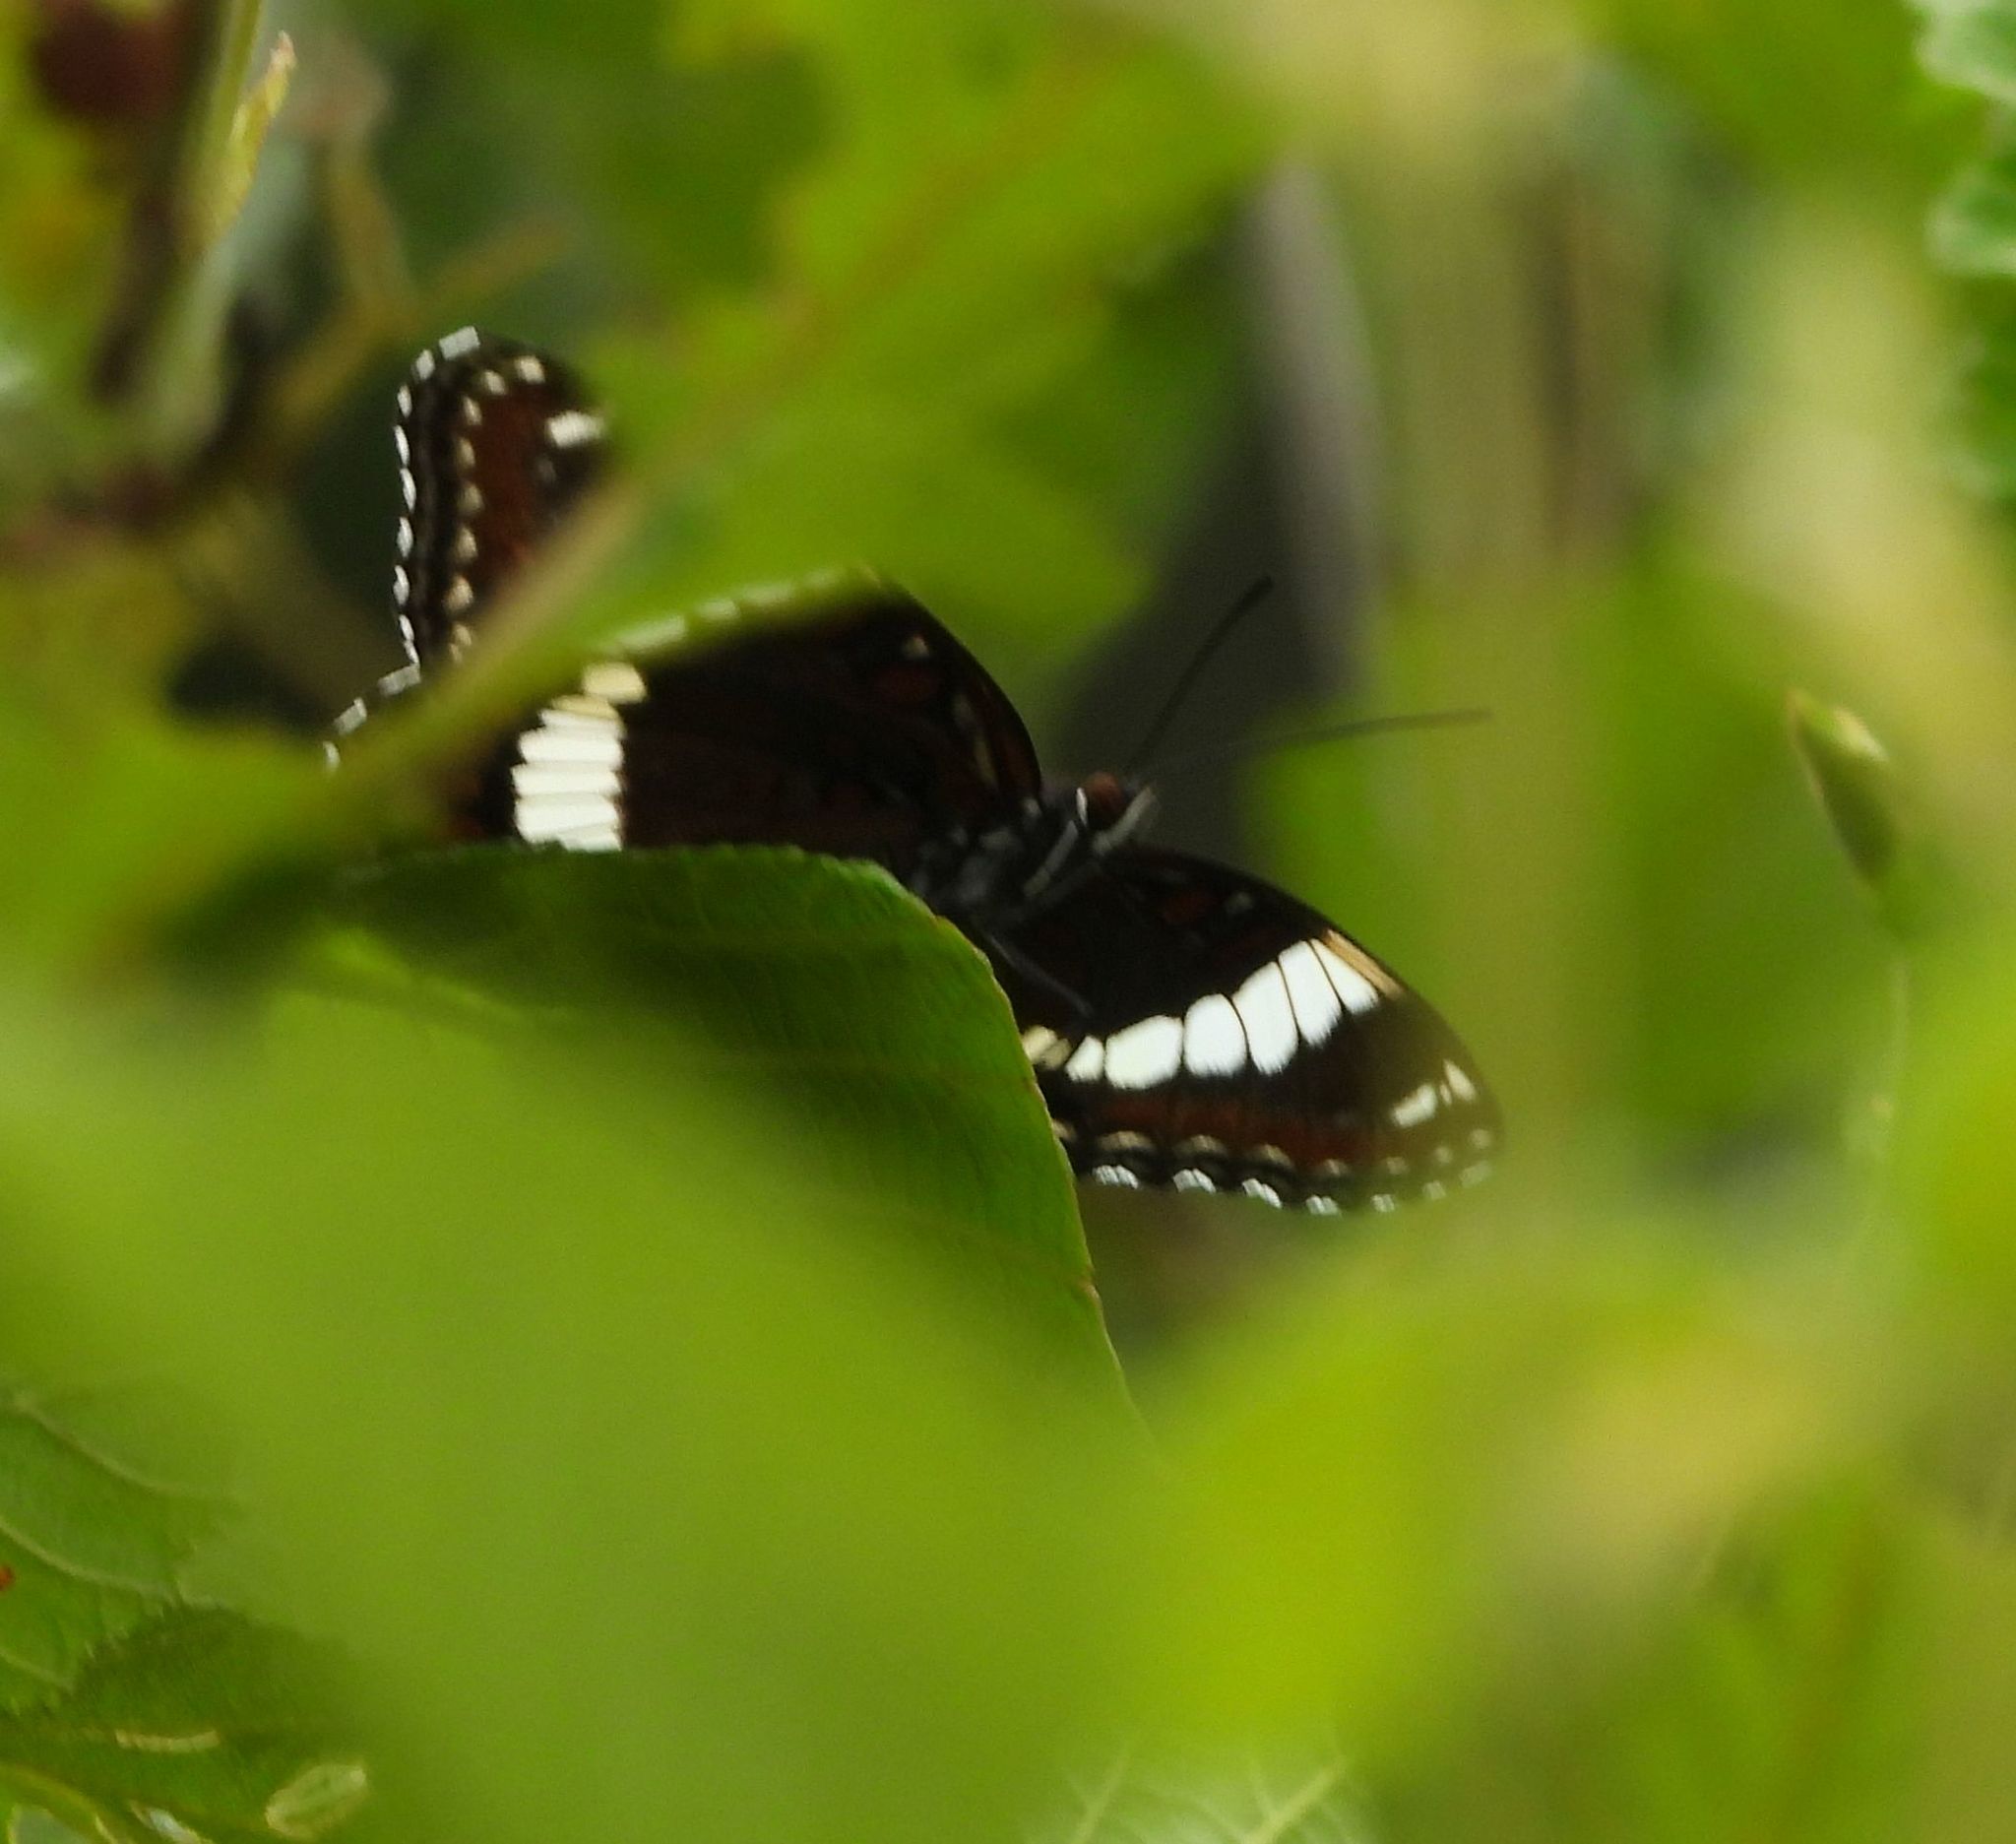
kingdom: Animalia
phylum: Arthropoda
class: Insecta
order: Lepidoptera
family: Nymphalidae
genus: Limenitis
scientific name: Limenitis arthemis
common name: Red-spotted admiral
